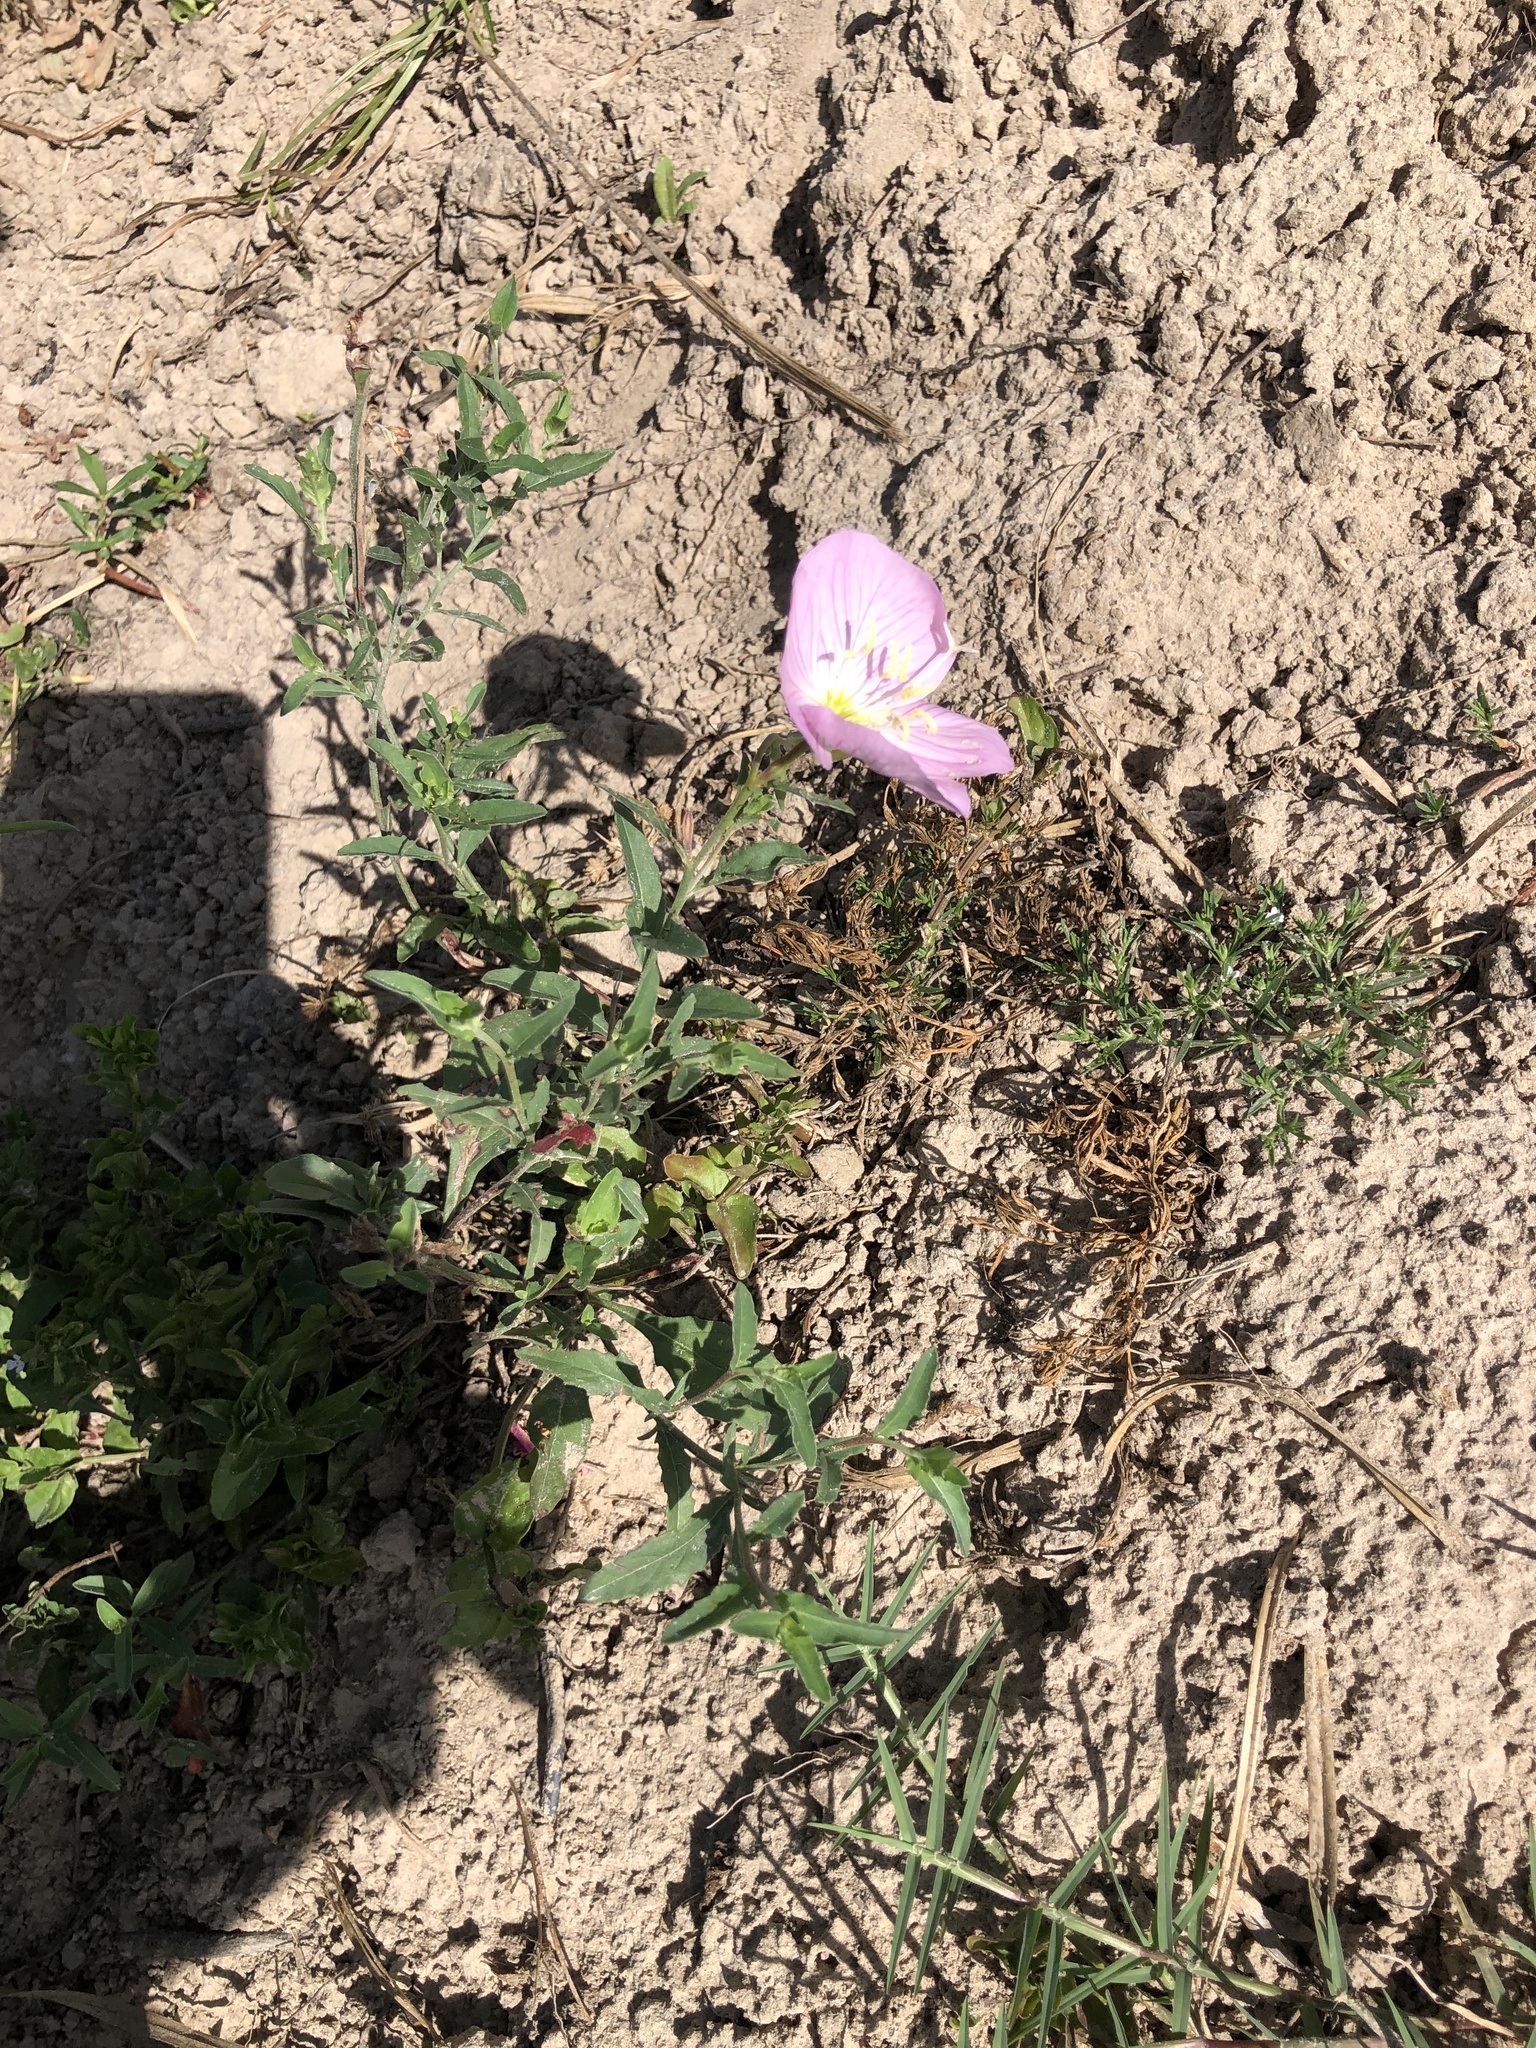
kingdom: Plantae
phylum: Tracheophyta
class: Magnoliopsida
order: Myrtales
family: Onagraceae
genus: Oenothera
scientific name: Oenothera speciosa
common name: White evening-primrose
